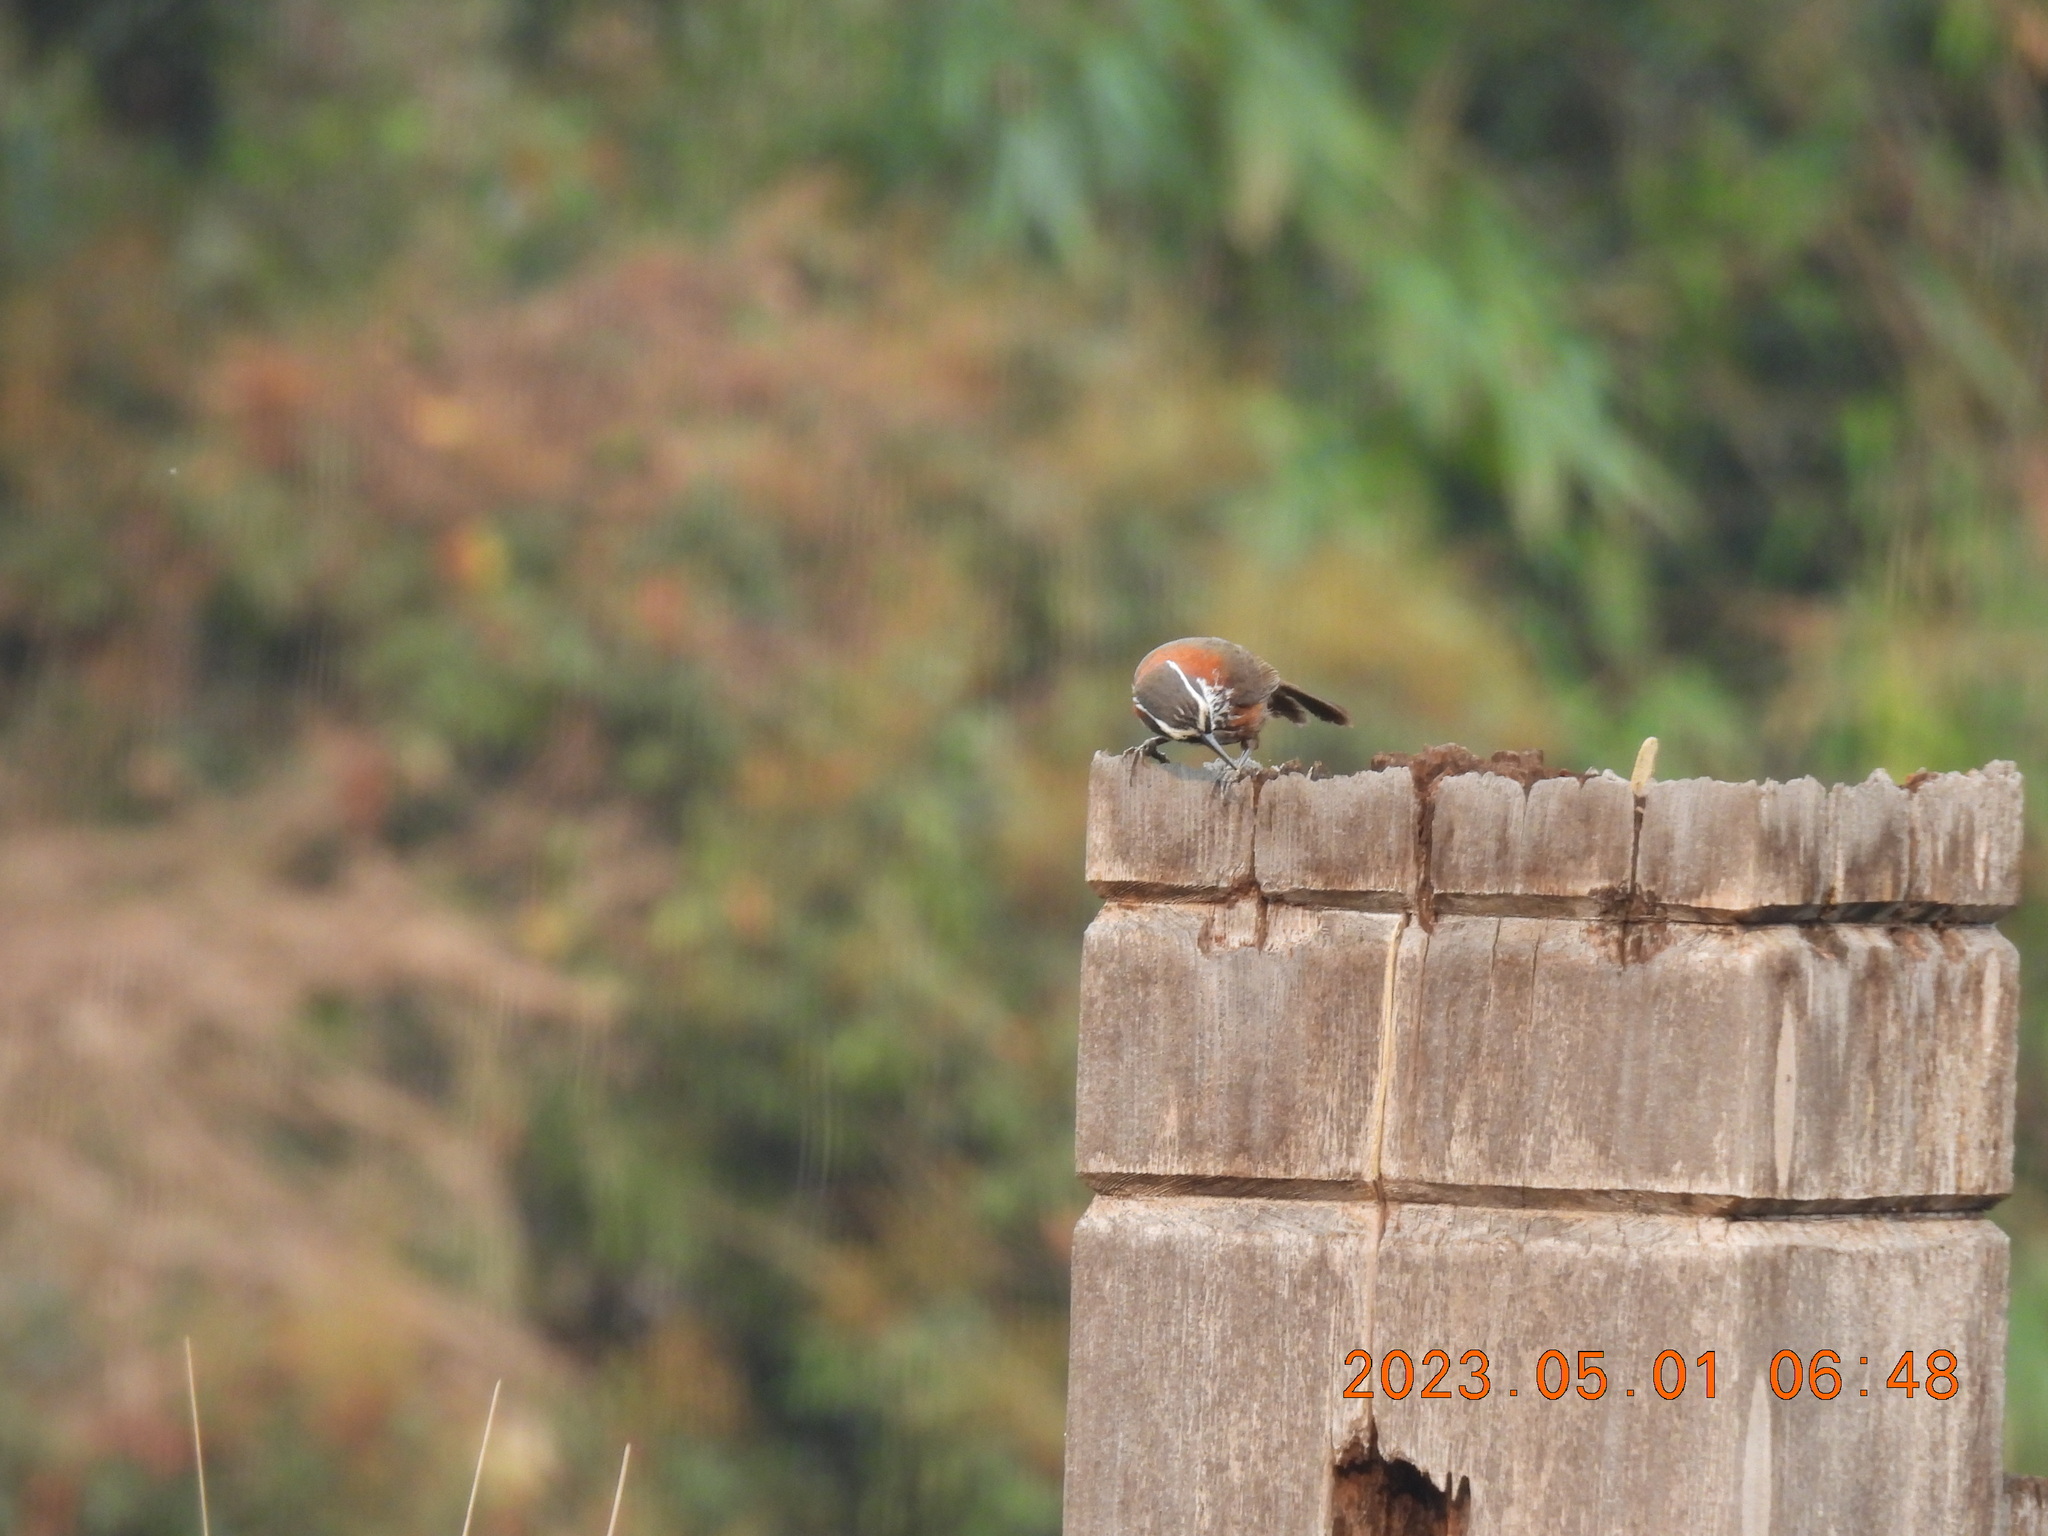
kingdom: Animalia
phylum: Chordata
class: Aves
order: Passeriformes
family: Timaliidae
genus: Pomatorhinus
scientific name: Pomatorhinus musicus
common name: Taiwan scimitar-babbler
